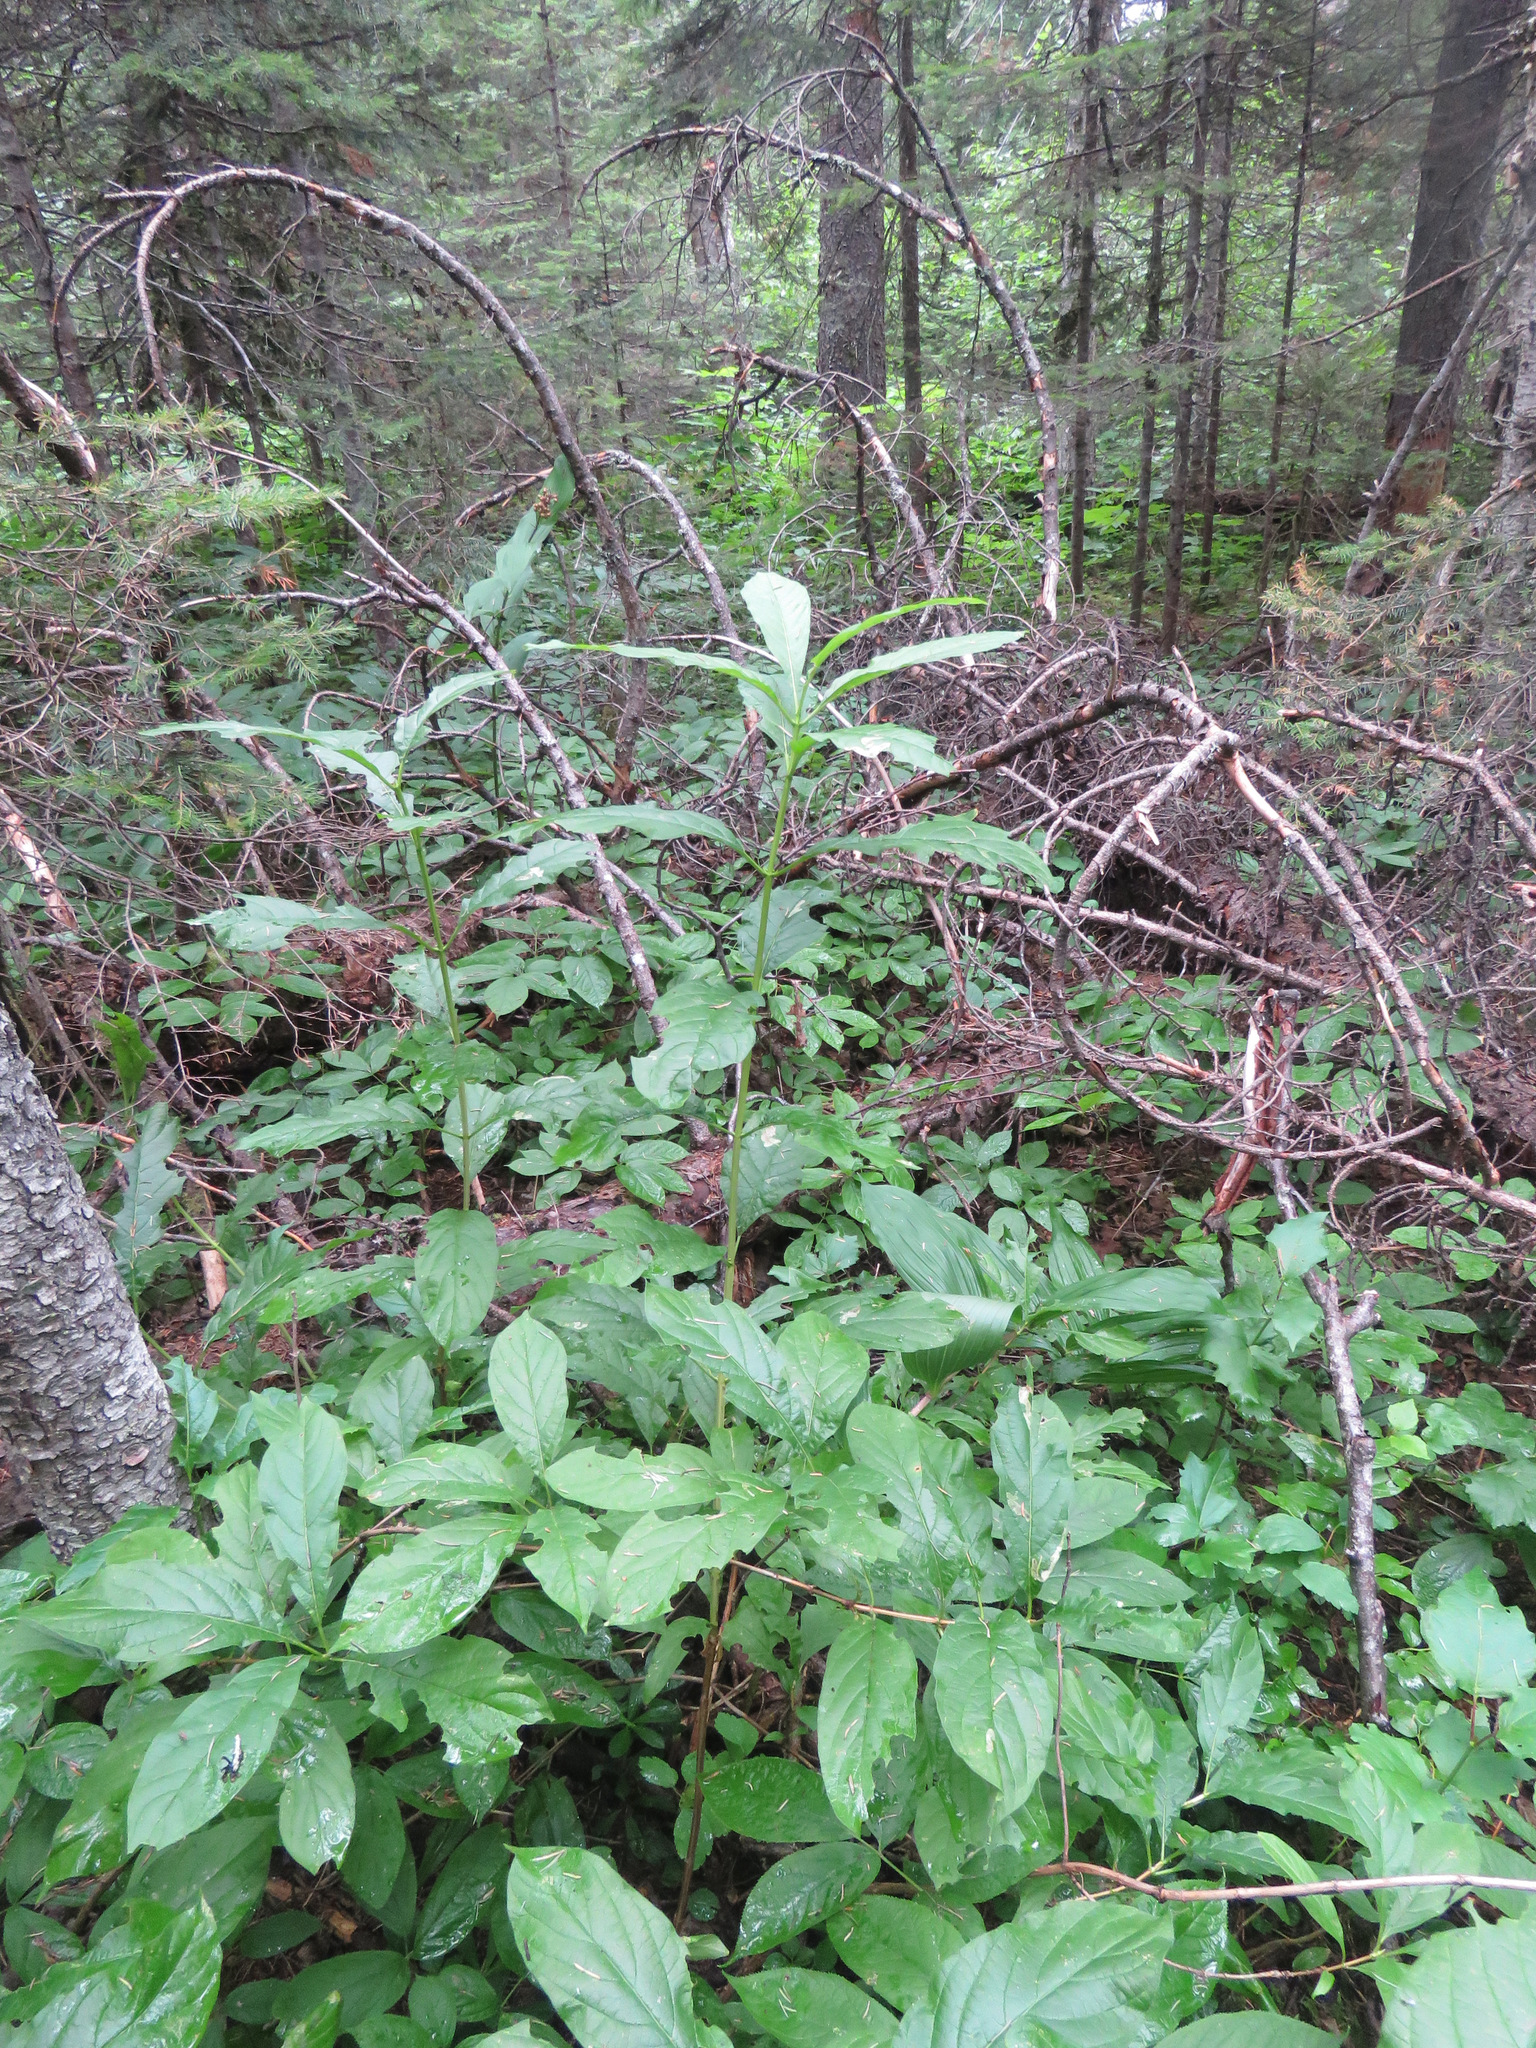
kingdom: Plantae
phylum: Tracheophyta
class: Magnoliopsida
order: Dipsacales
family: Caprifoliaceae
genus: Lonicera
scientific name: Lonicera involucrata
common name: Californian honeysuckle
